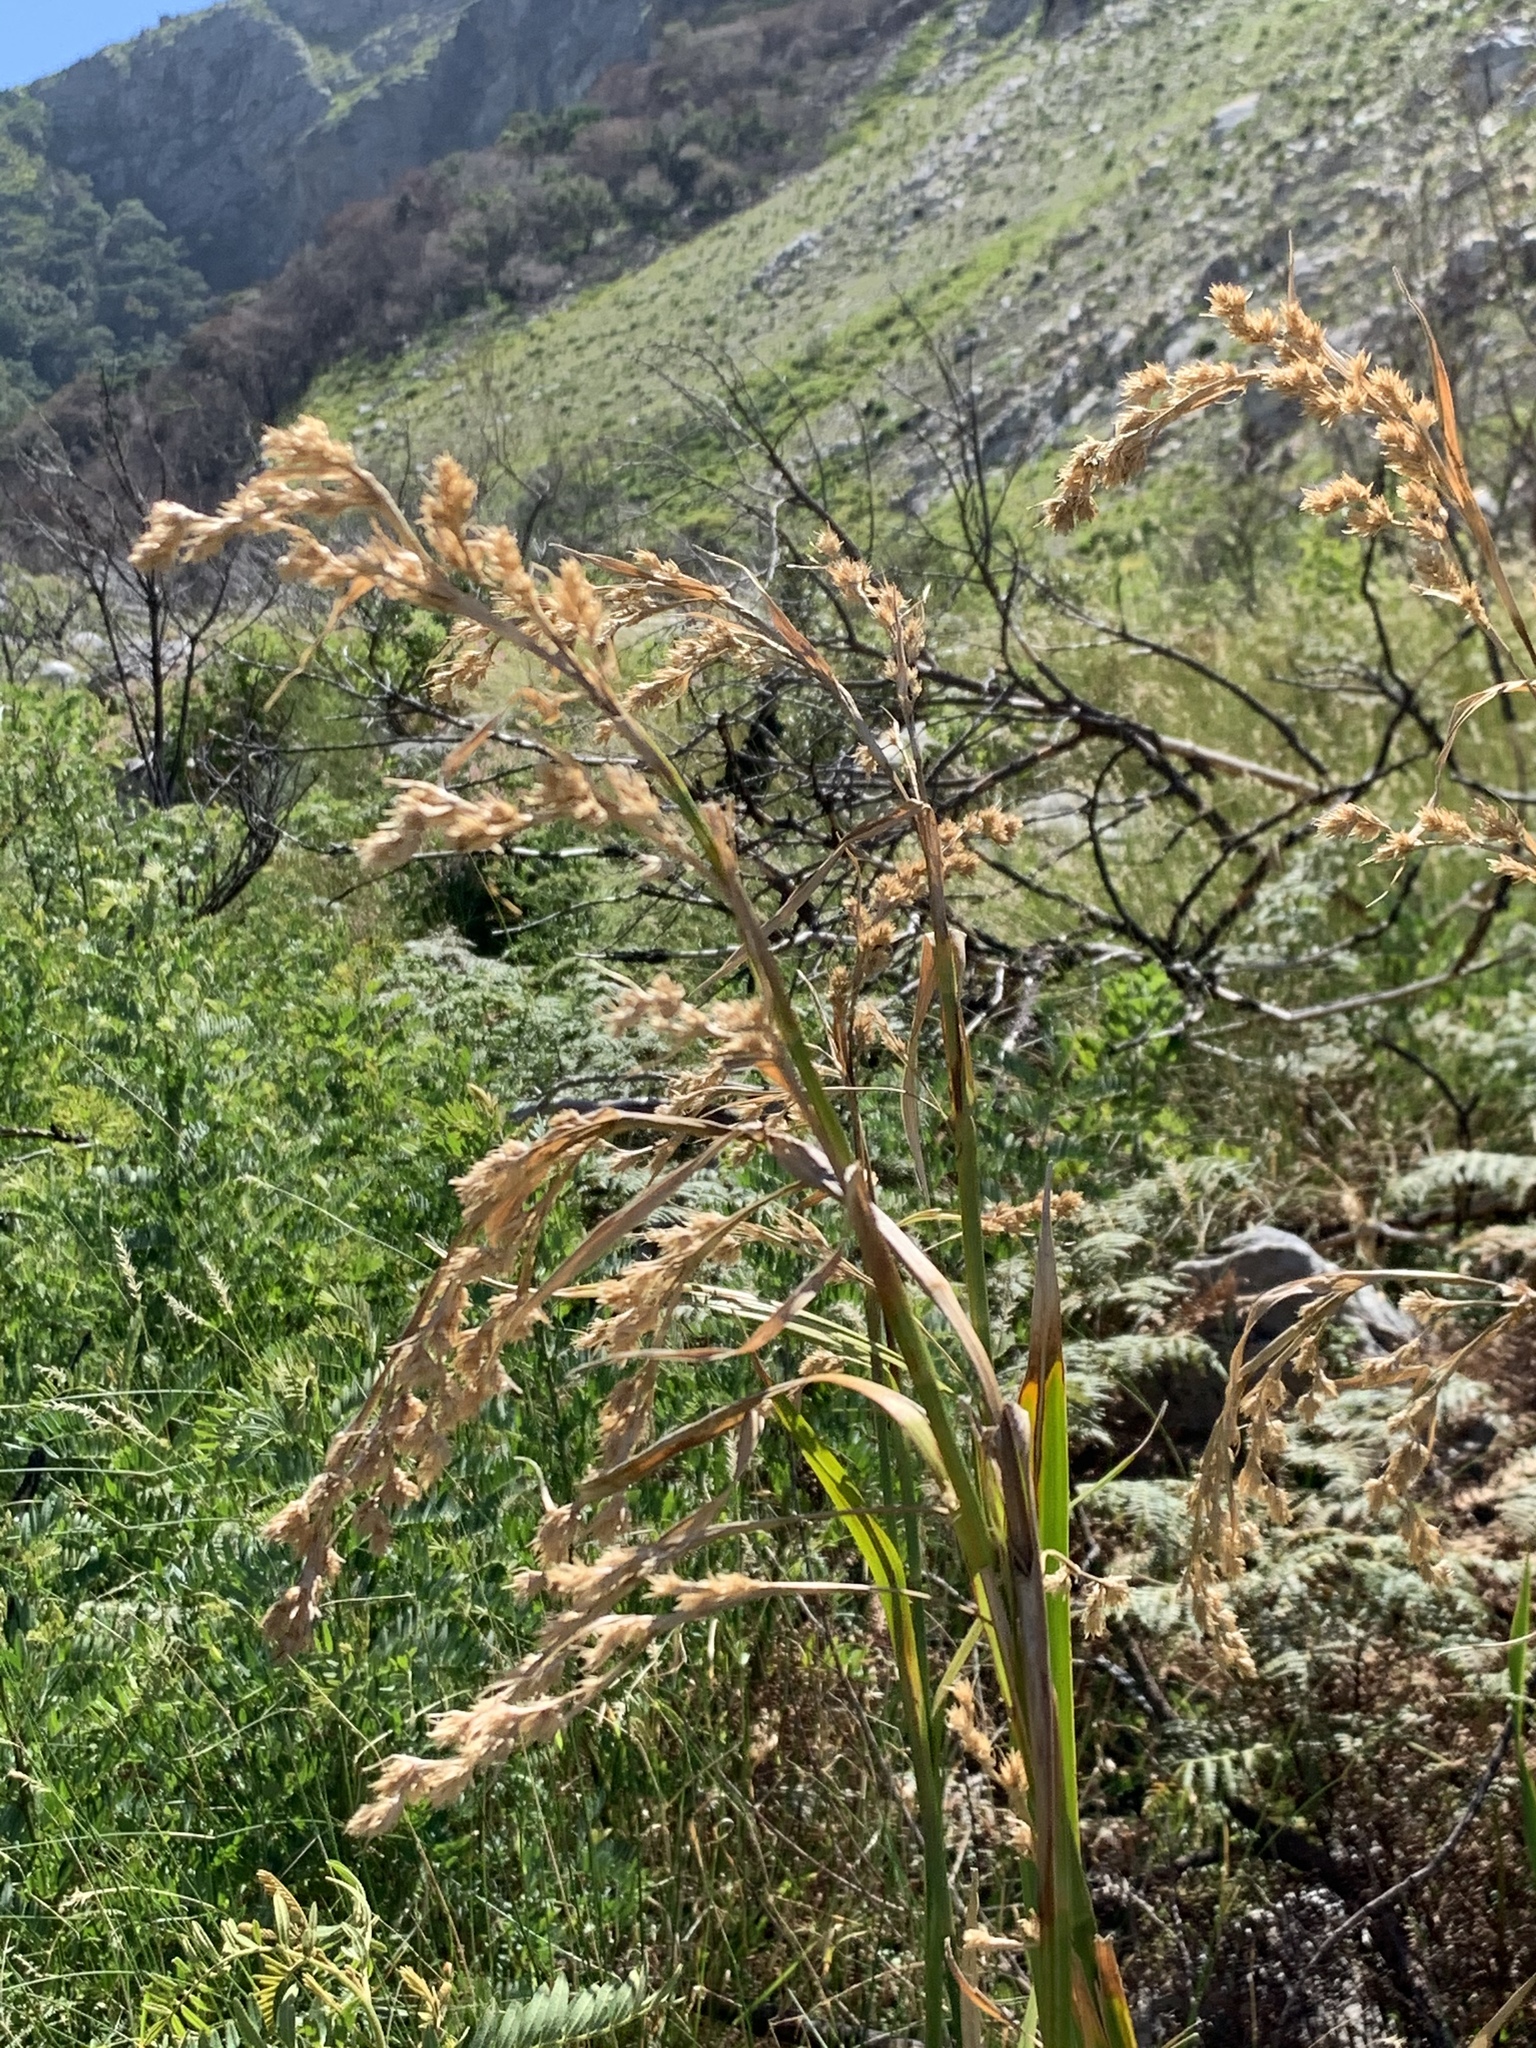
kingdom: Plantae
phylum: Tracheophyta
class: Liliopsida
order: Poales
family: Cyperaceae
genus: Carpha
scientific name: Carpha glomerata
